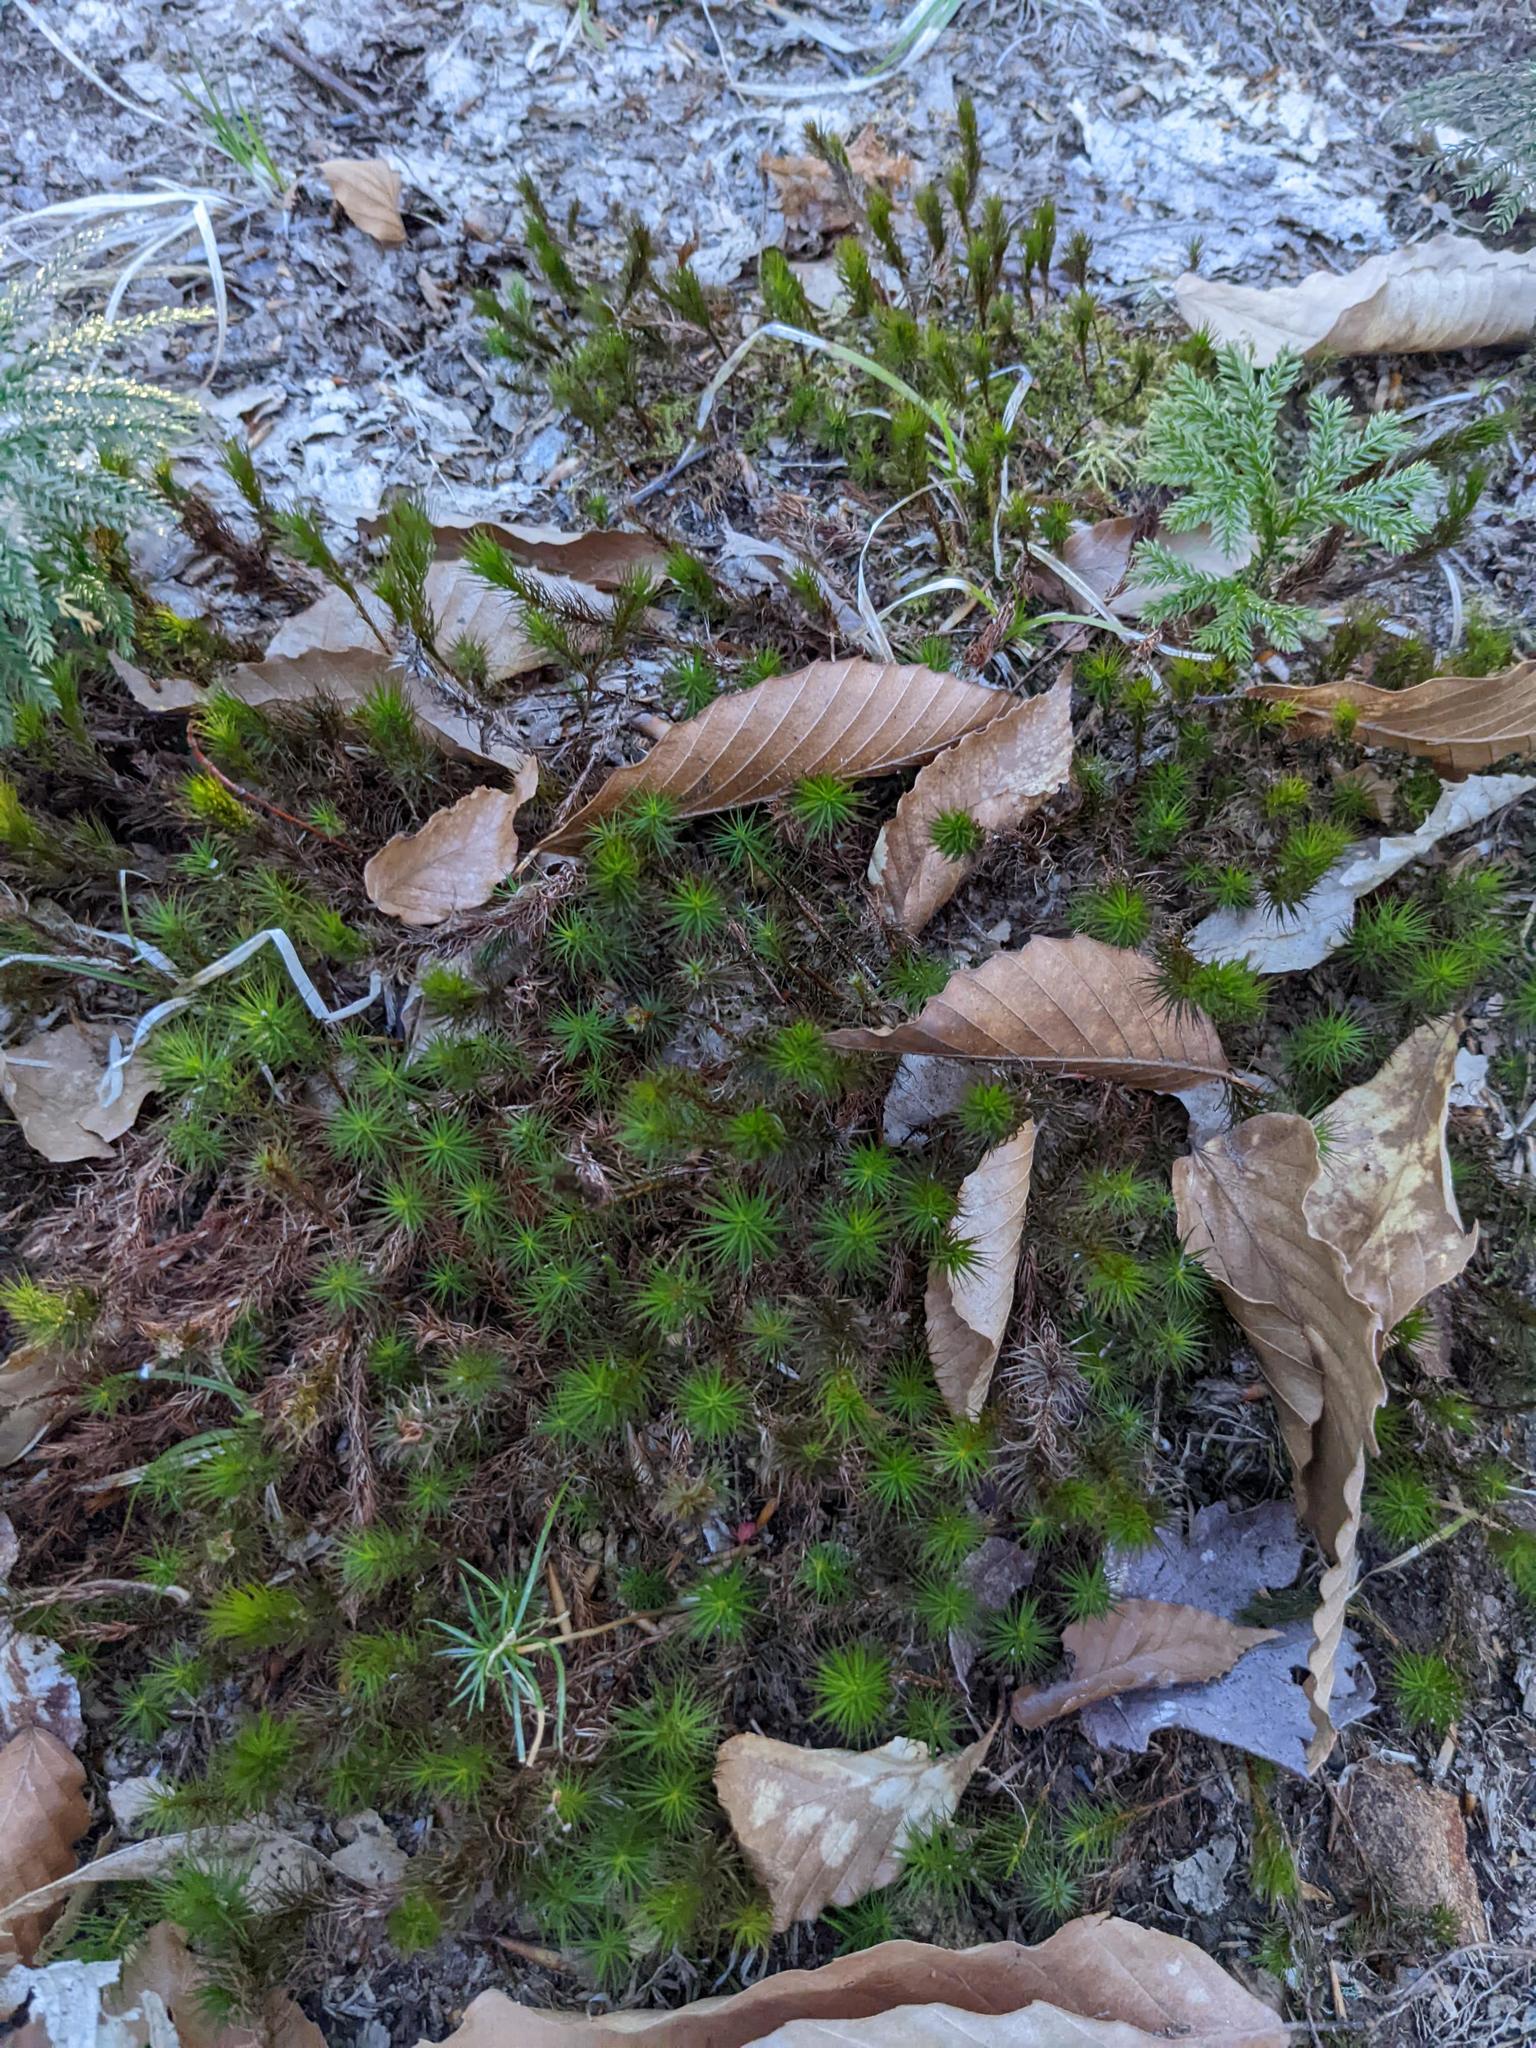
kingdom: Plantae
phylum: Tracheophyta
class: Magnoliopsida
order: Fagales
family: Fagaceae
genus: Fagus
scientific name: Fagus grandifolia
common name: American beech
